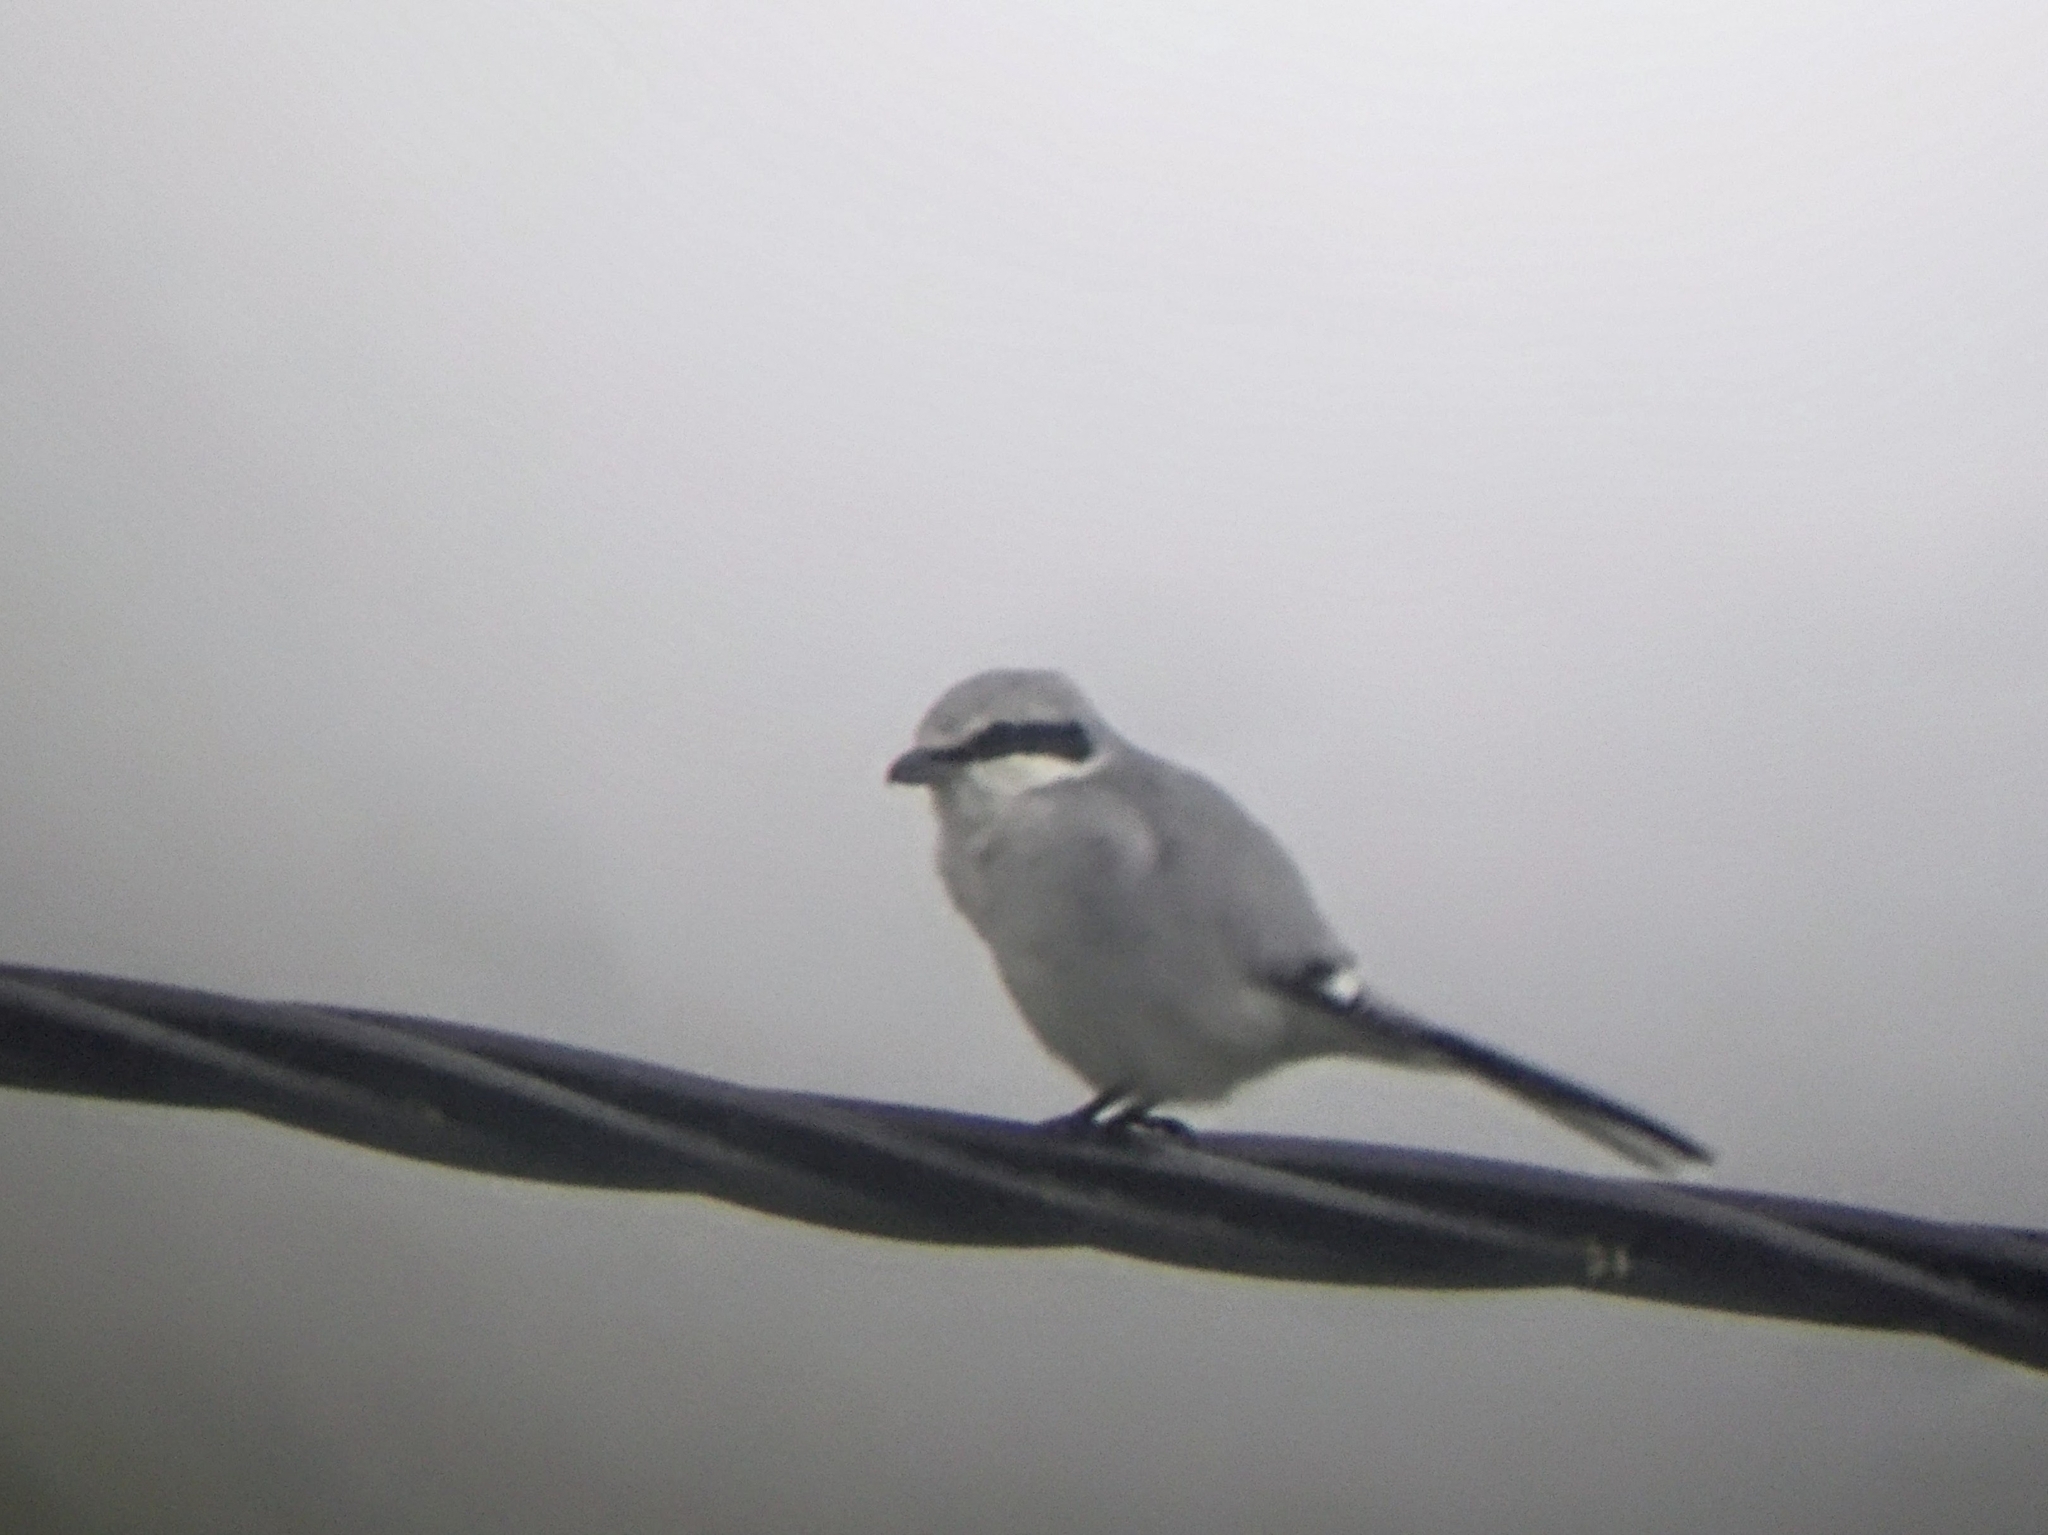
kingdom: Animalia
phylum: Chordata
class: Aves
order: Passeriformes
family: Laniidae
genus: Lanius
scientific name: Lanius excubitor
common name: Great grey shrike
